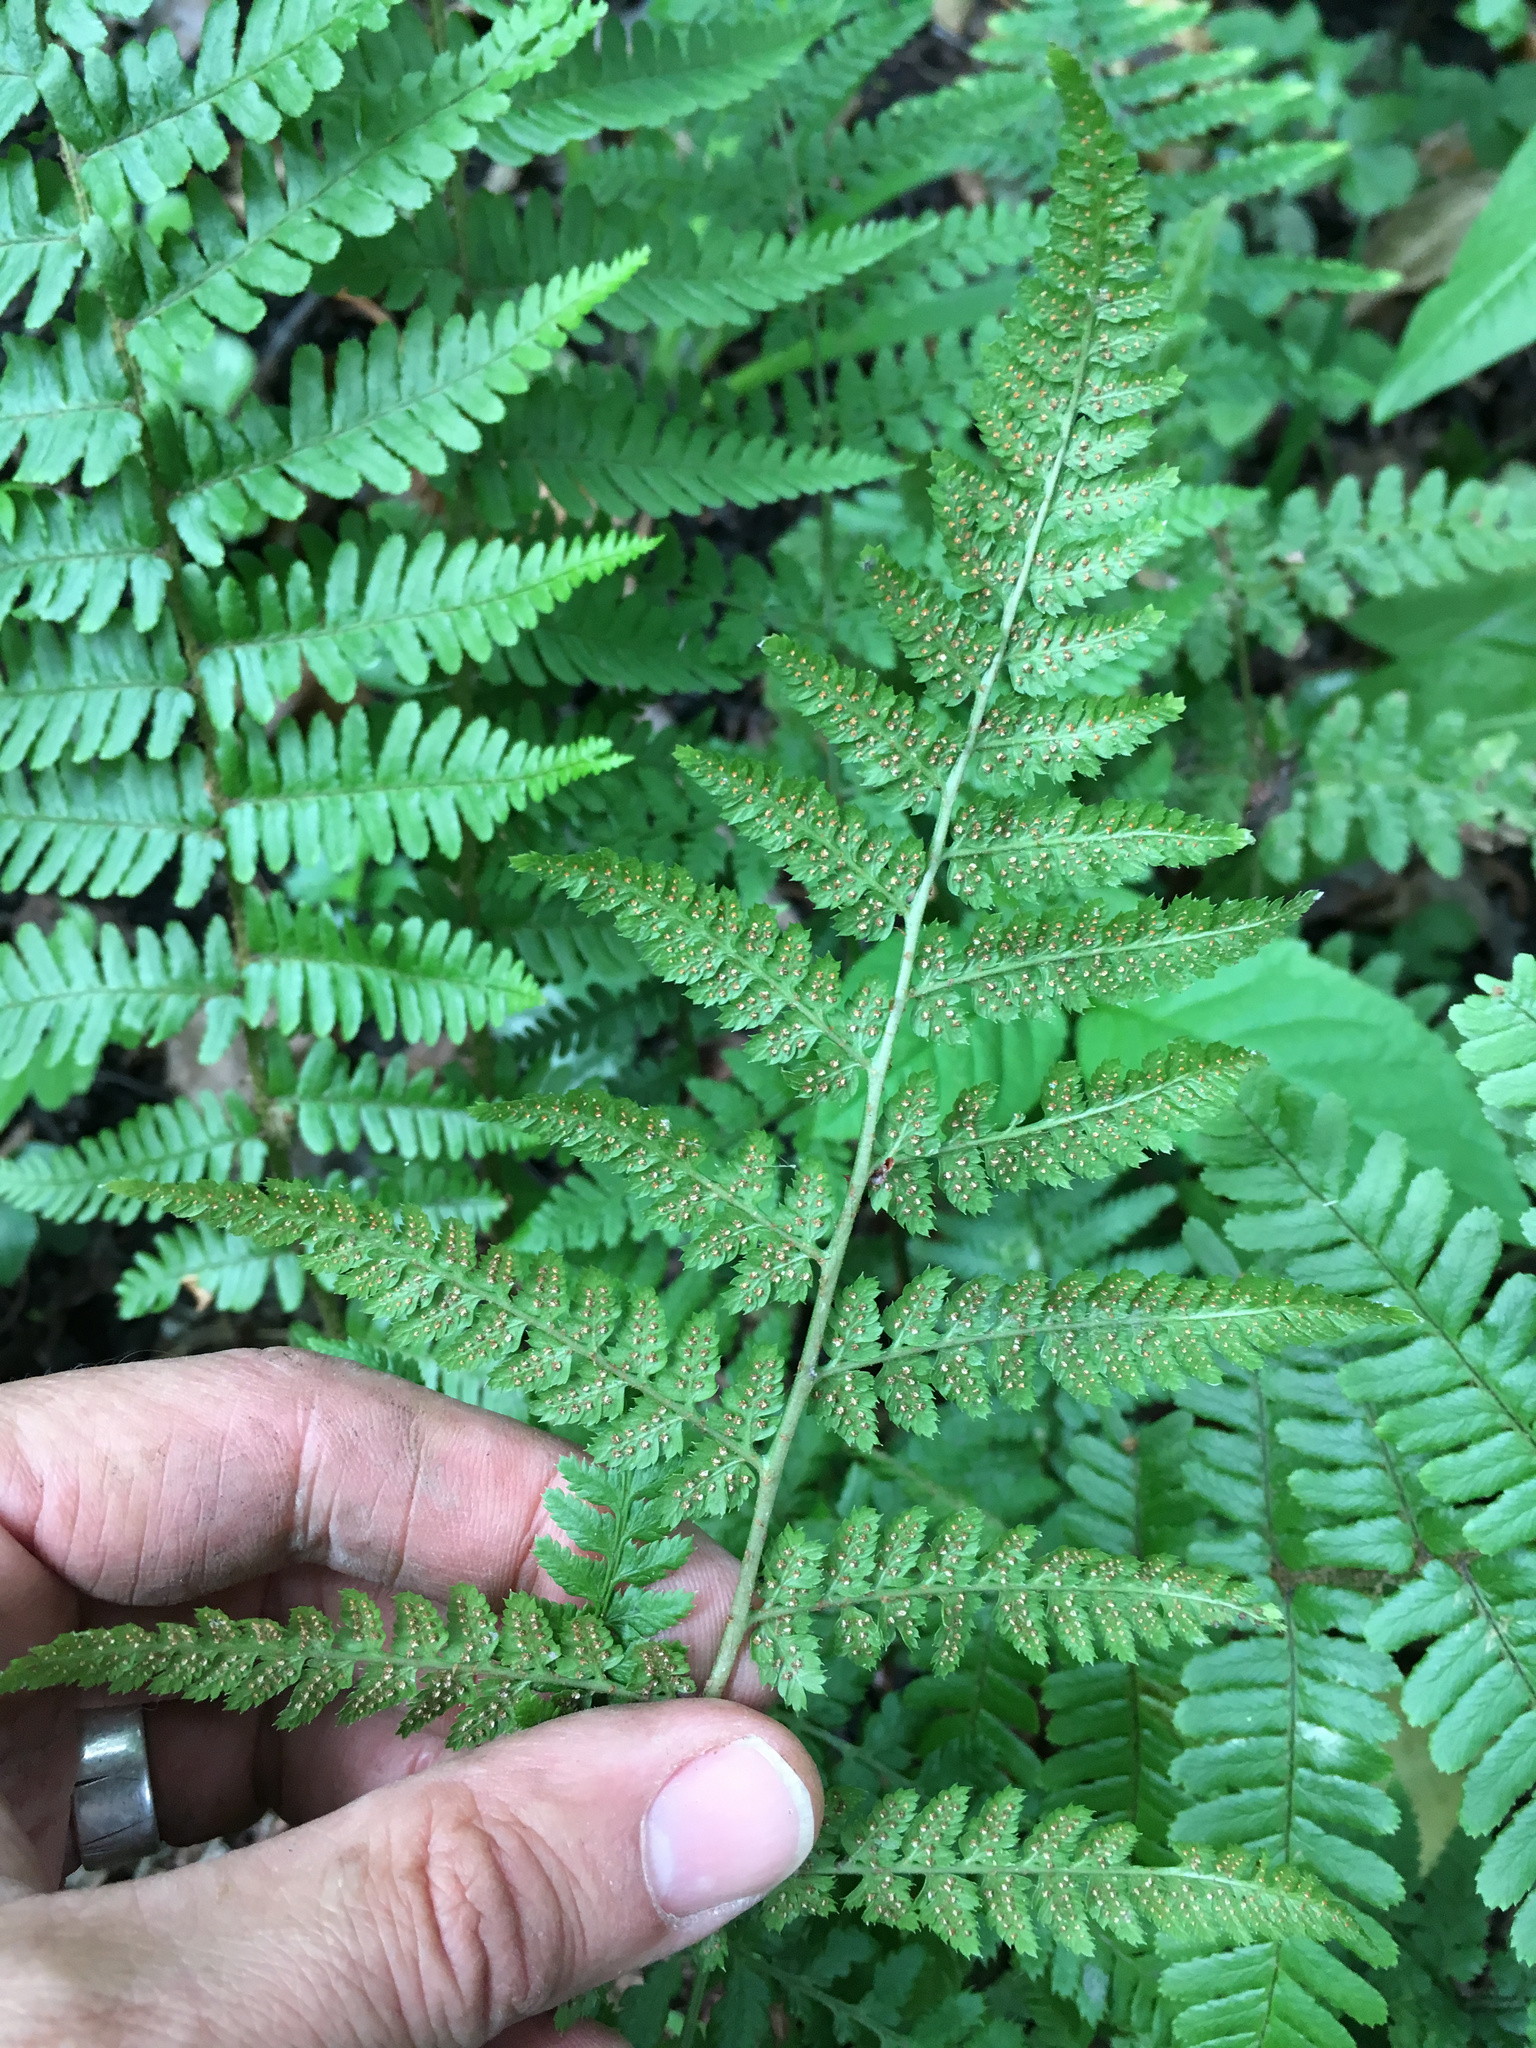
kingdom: Plantae
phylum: Tracheophyta
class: Polypodiopsida
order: Polypodiales
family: Dryopteridaceae
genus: Dryopteris
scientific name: Dryopteris dilatata
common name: Broad buckler-fern
